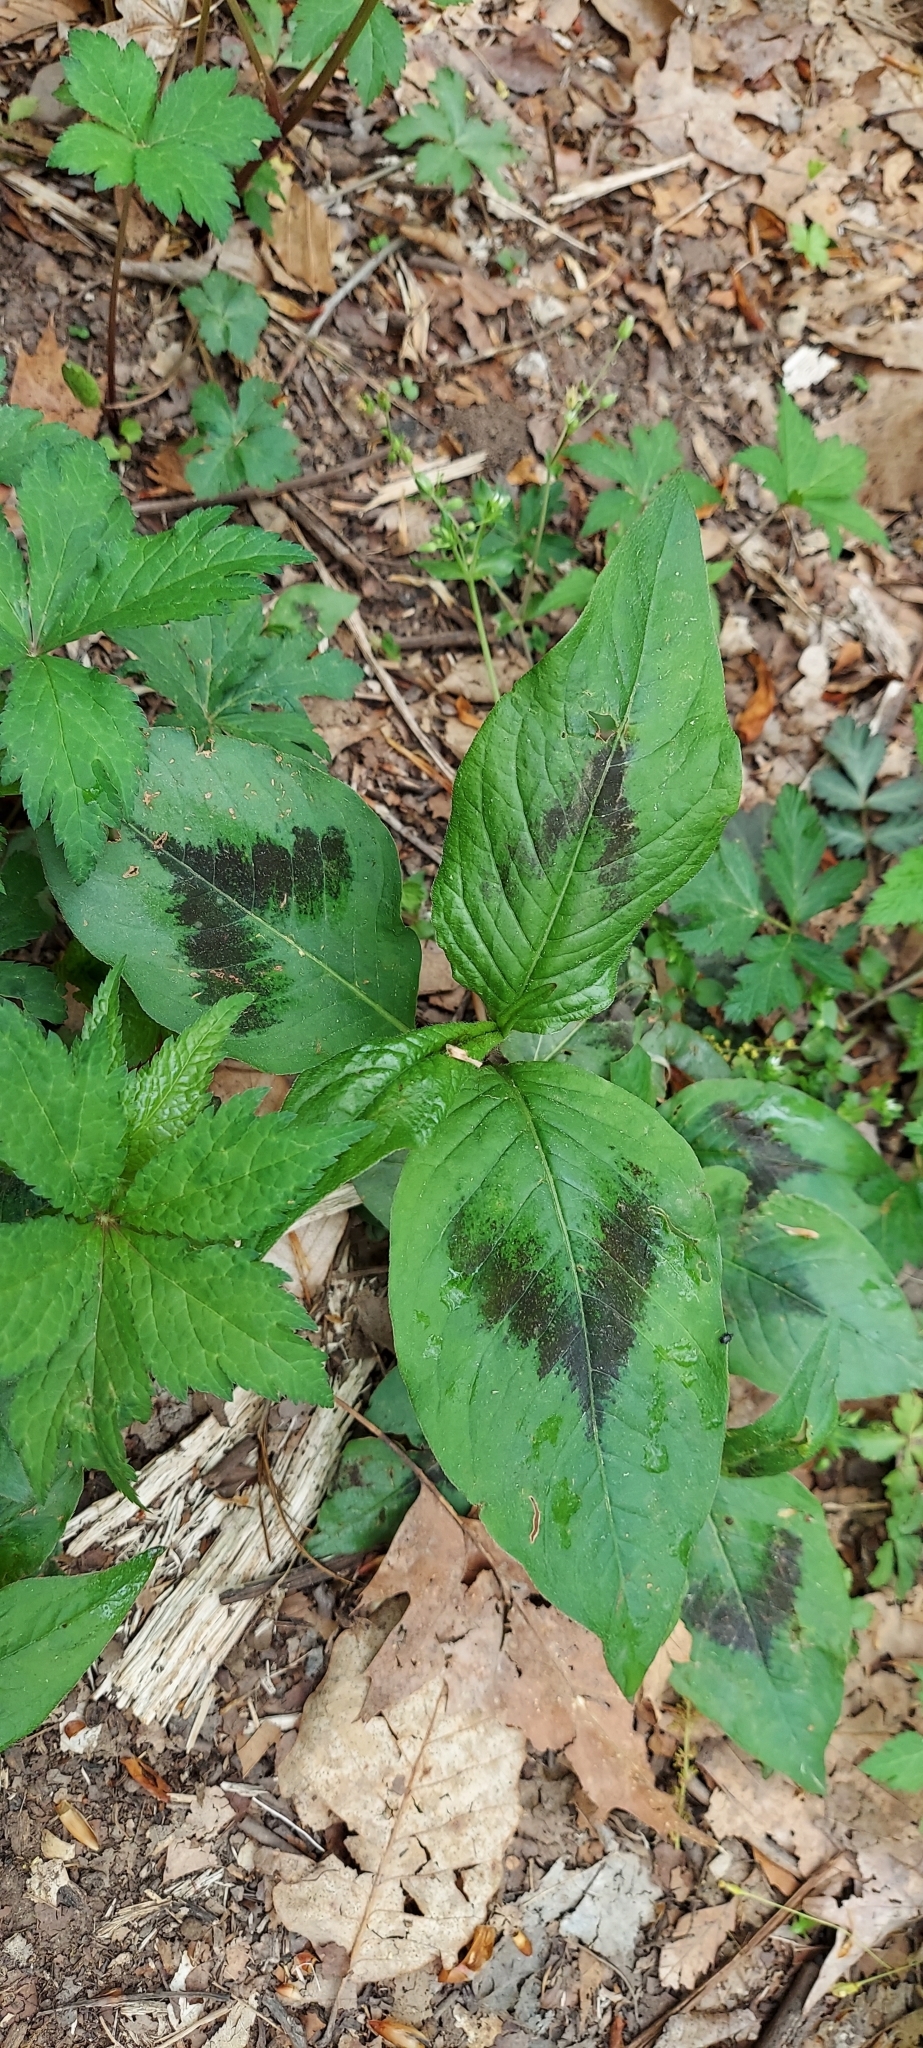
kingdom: Plantae
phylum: Tracheophyta
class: Magnoliopsida
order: Caryophyllales
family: Polygonaceae
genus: Persicaria
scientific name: Persicaria virginiana
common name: Jumpseed
